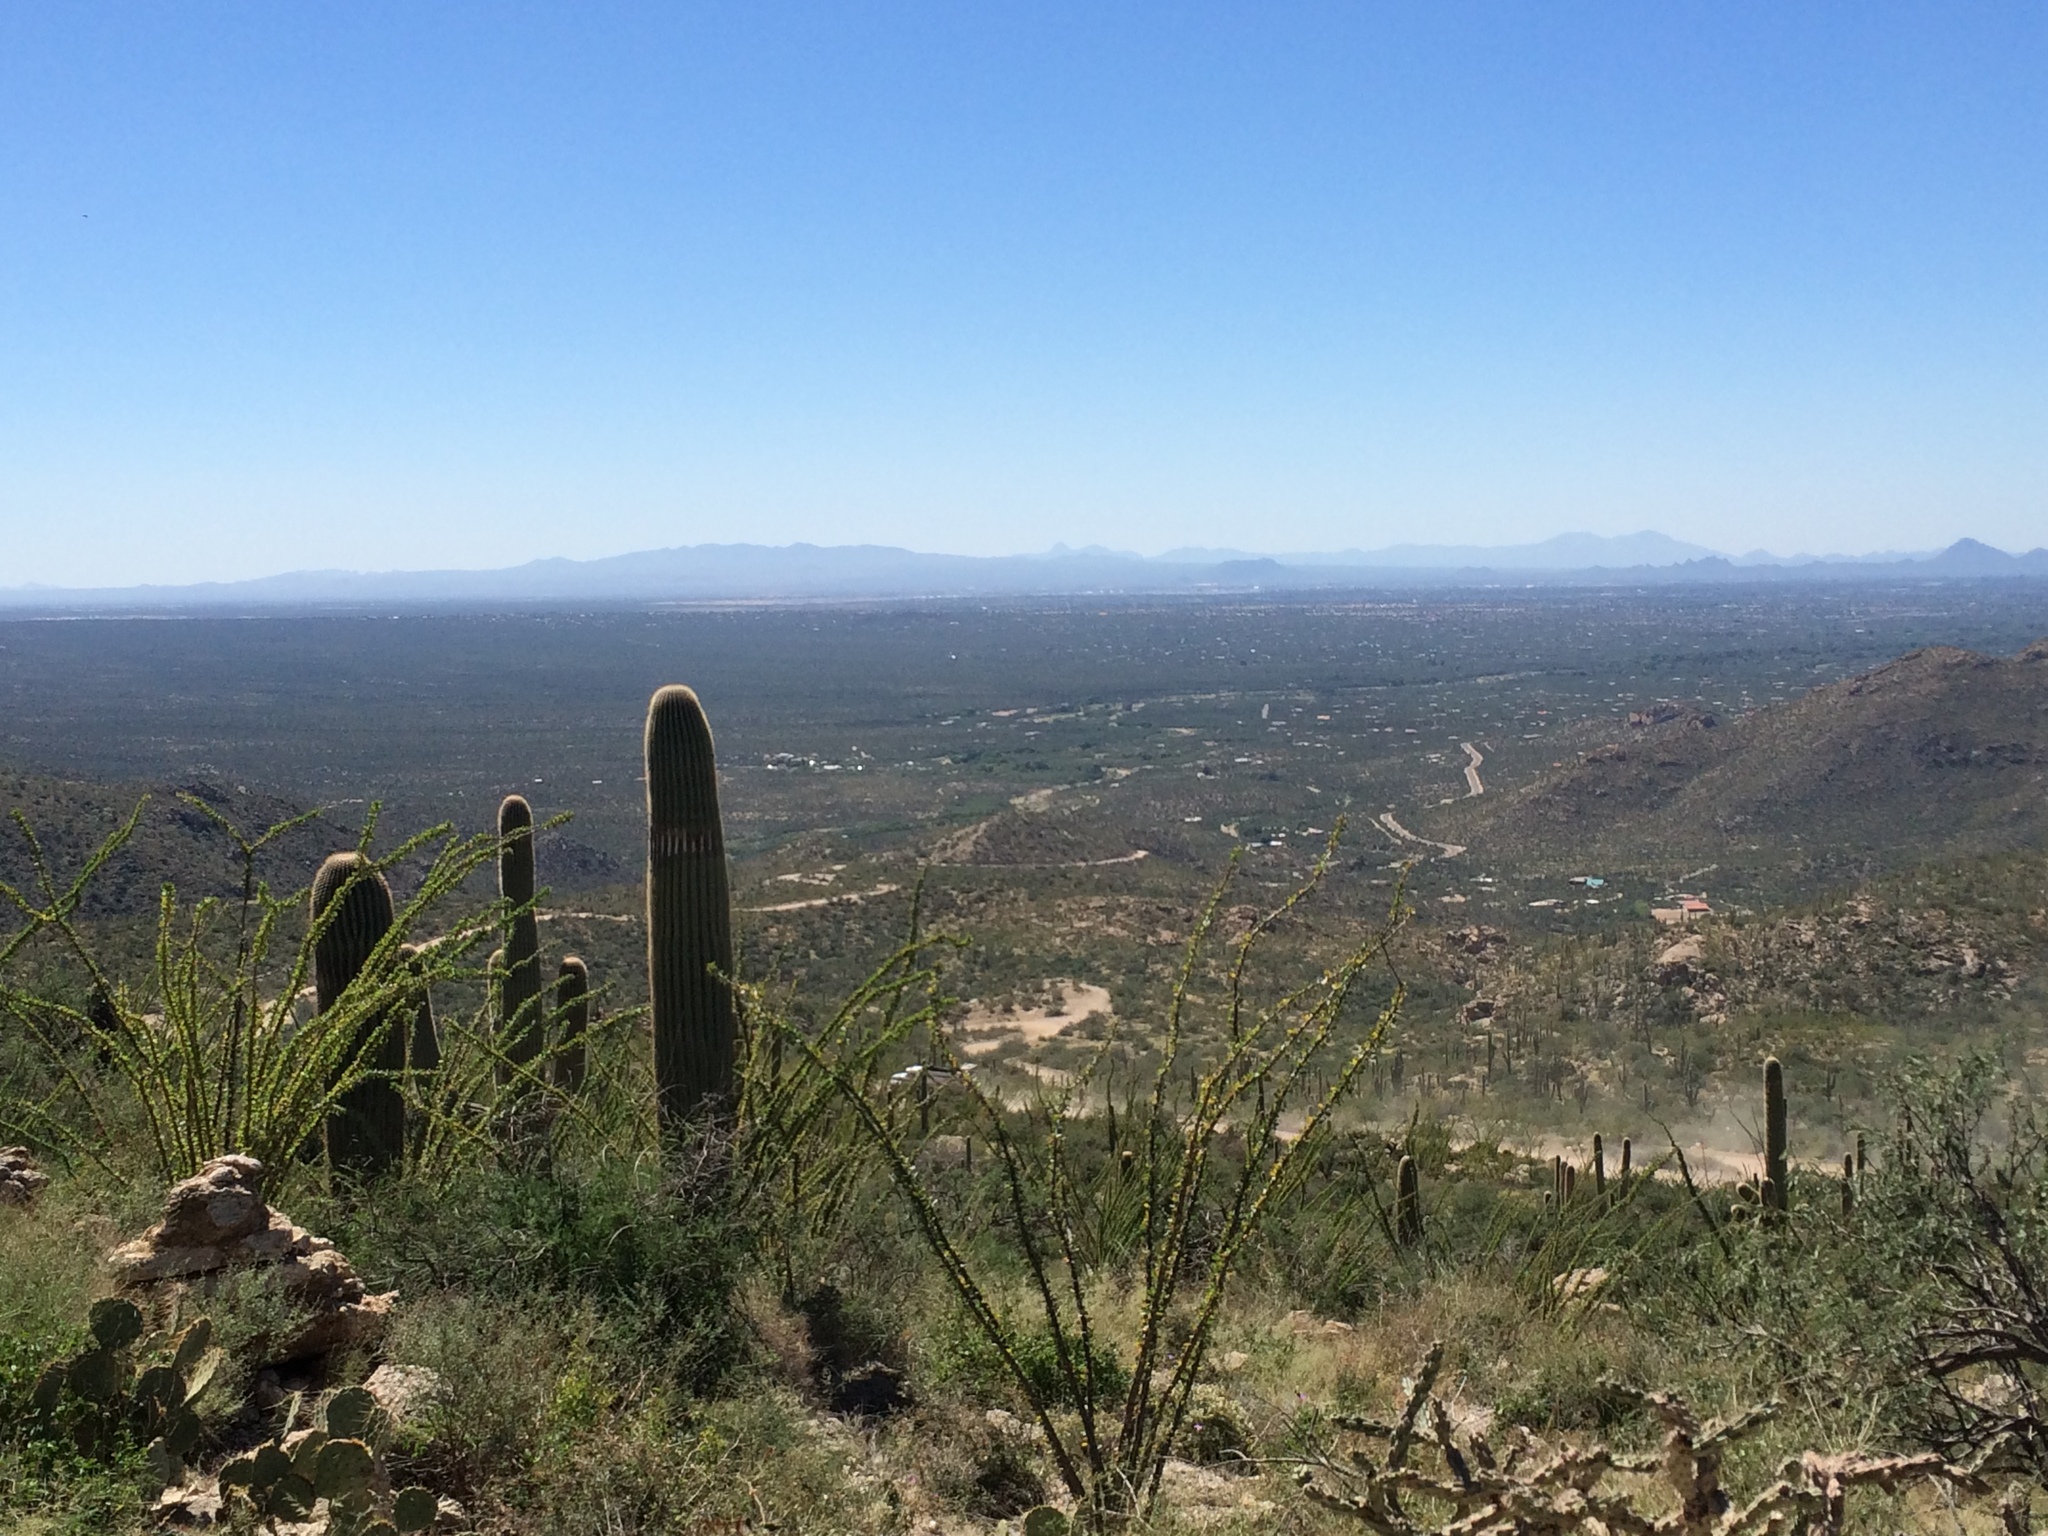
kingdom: Plantae
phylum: Tracheophyta
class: Magnoliopsida
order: Ericales
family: Fouquieriaceae
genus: Fouquieria
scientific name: Fouquieria splendens
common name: Vine-cactus
